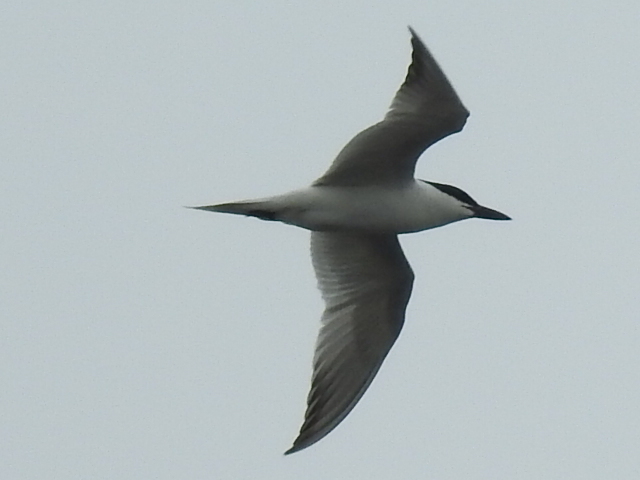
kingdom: Animalia
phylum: Chordata
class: Aves
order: Charadriiformes
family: Laridae
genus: Gelochelidon
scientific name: Gelochelidon nilotica
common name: Gull-billed tern
